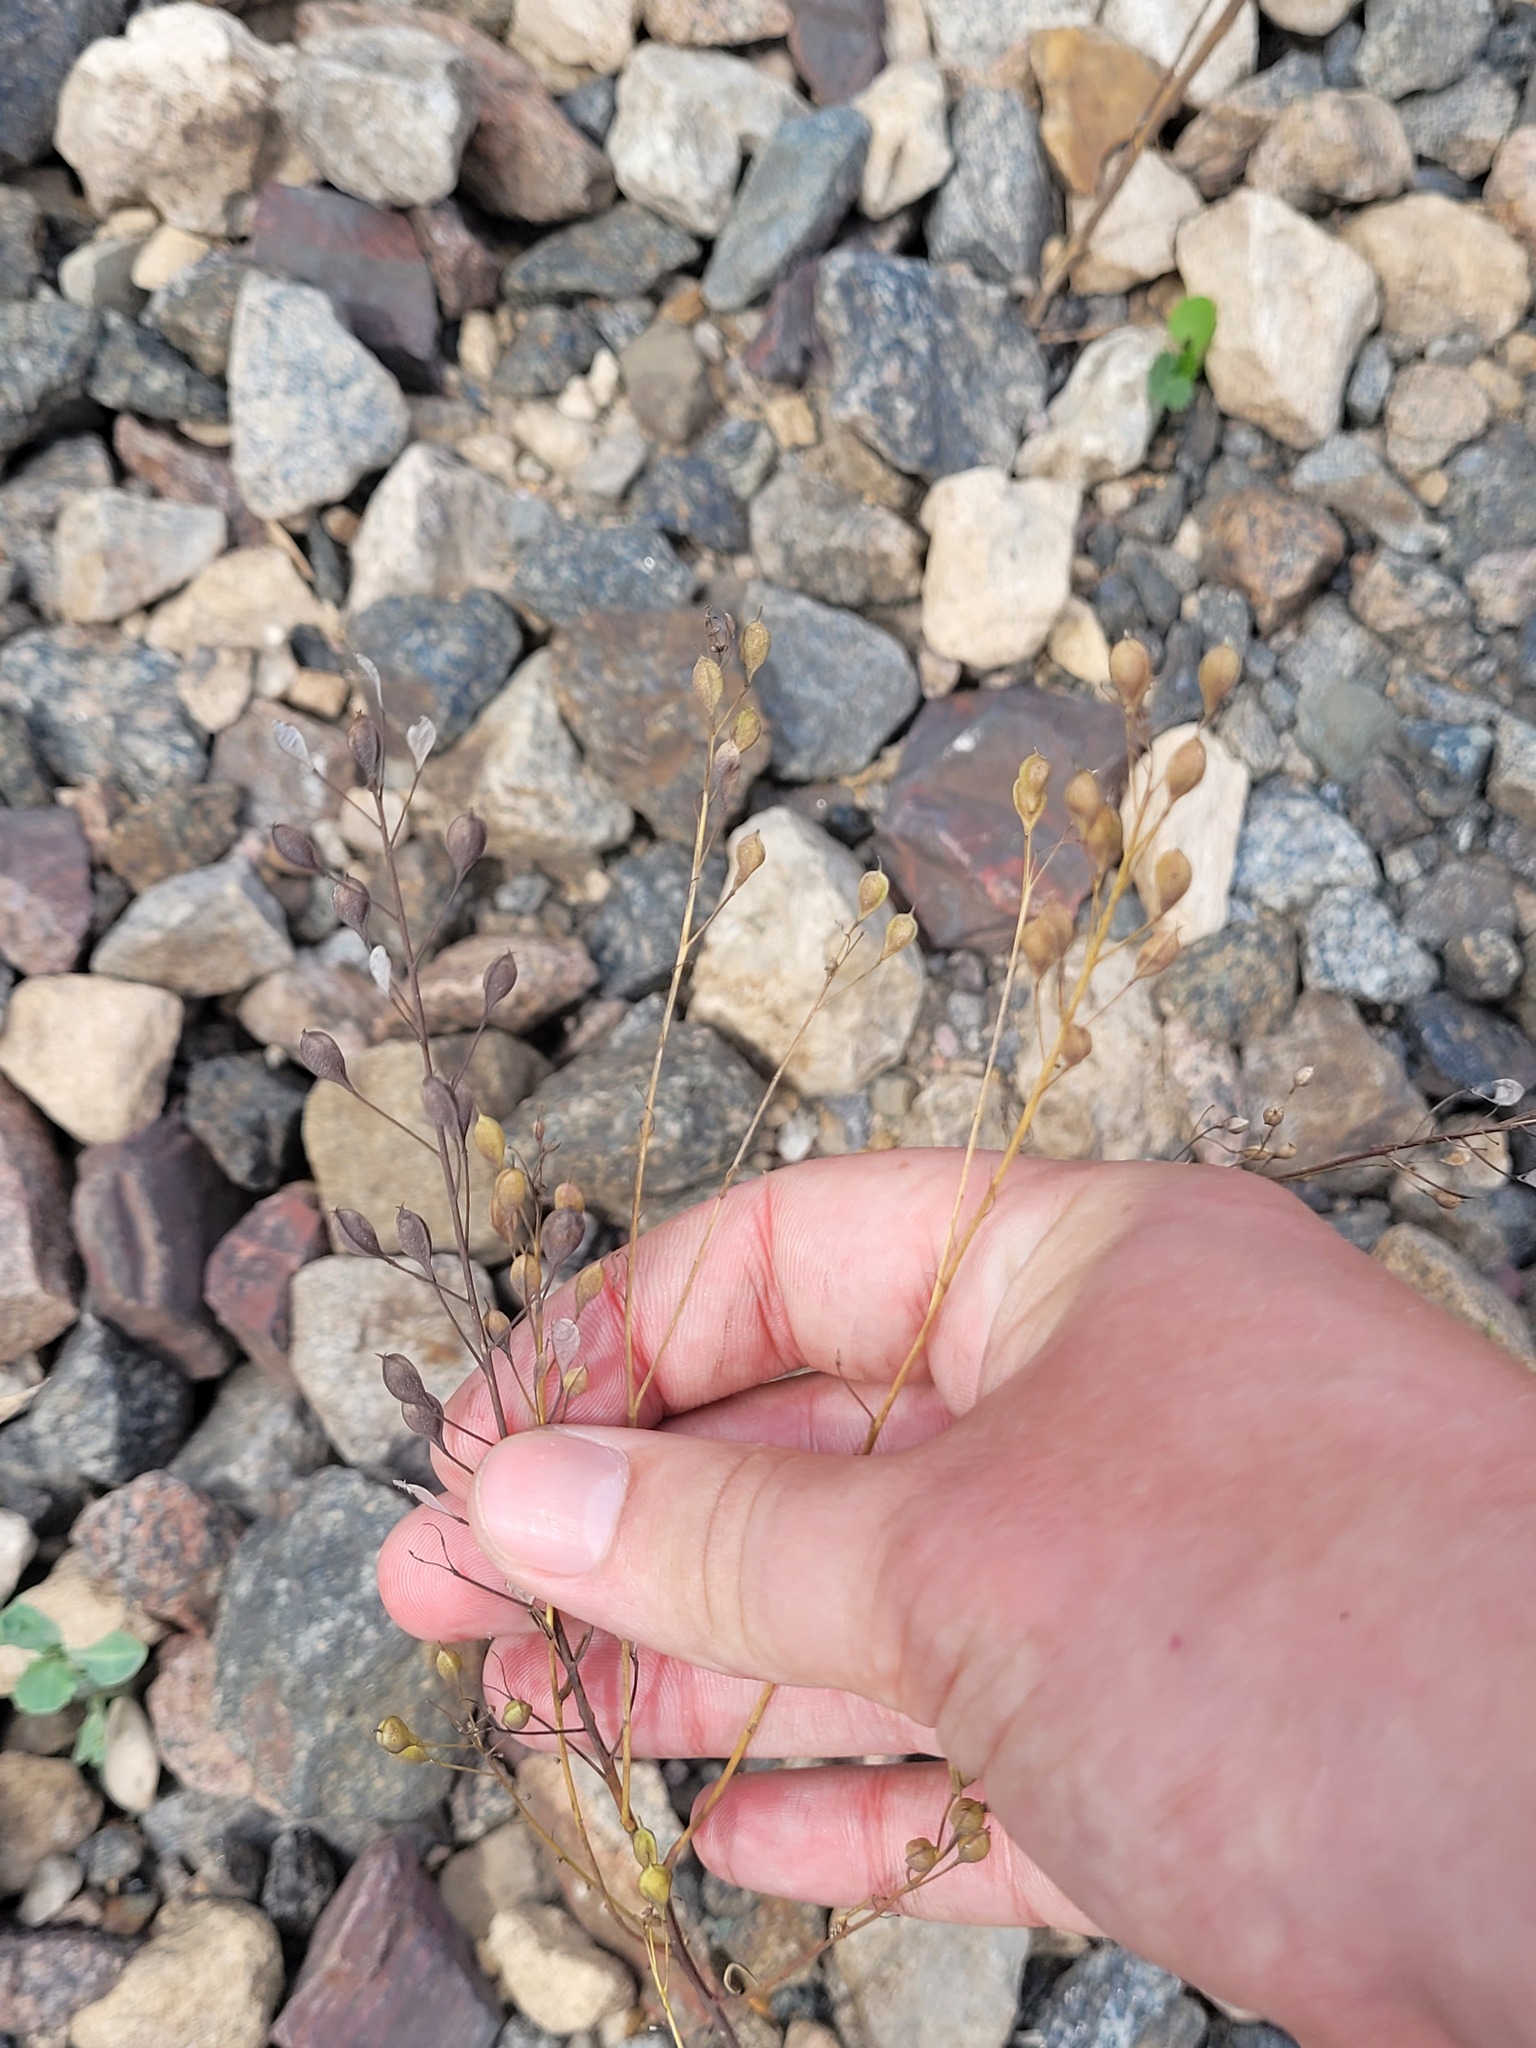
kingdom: Plantae
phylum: Tracheophyta
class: Magnoliopsida
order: Brassicales
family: Brassicaceae
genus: Camelina
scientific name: Camelina sativa
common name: Gold-of-pleasure
